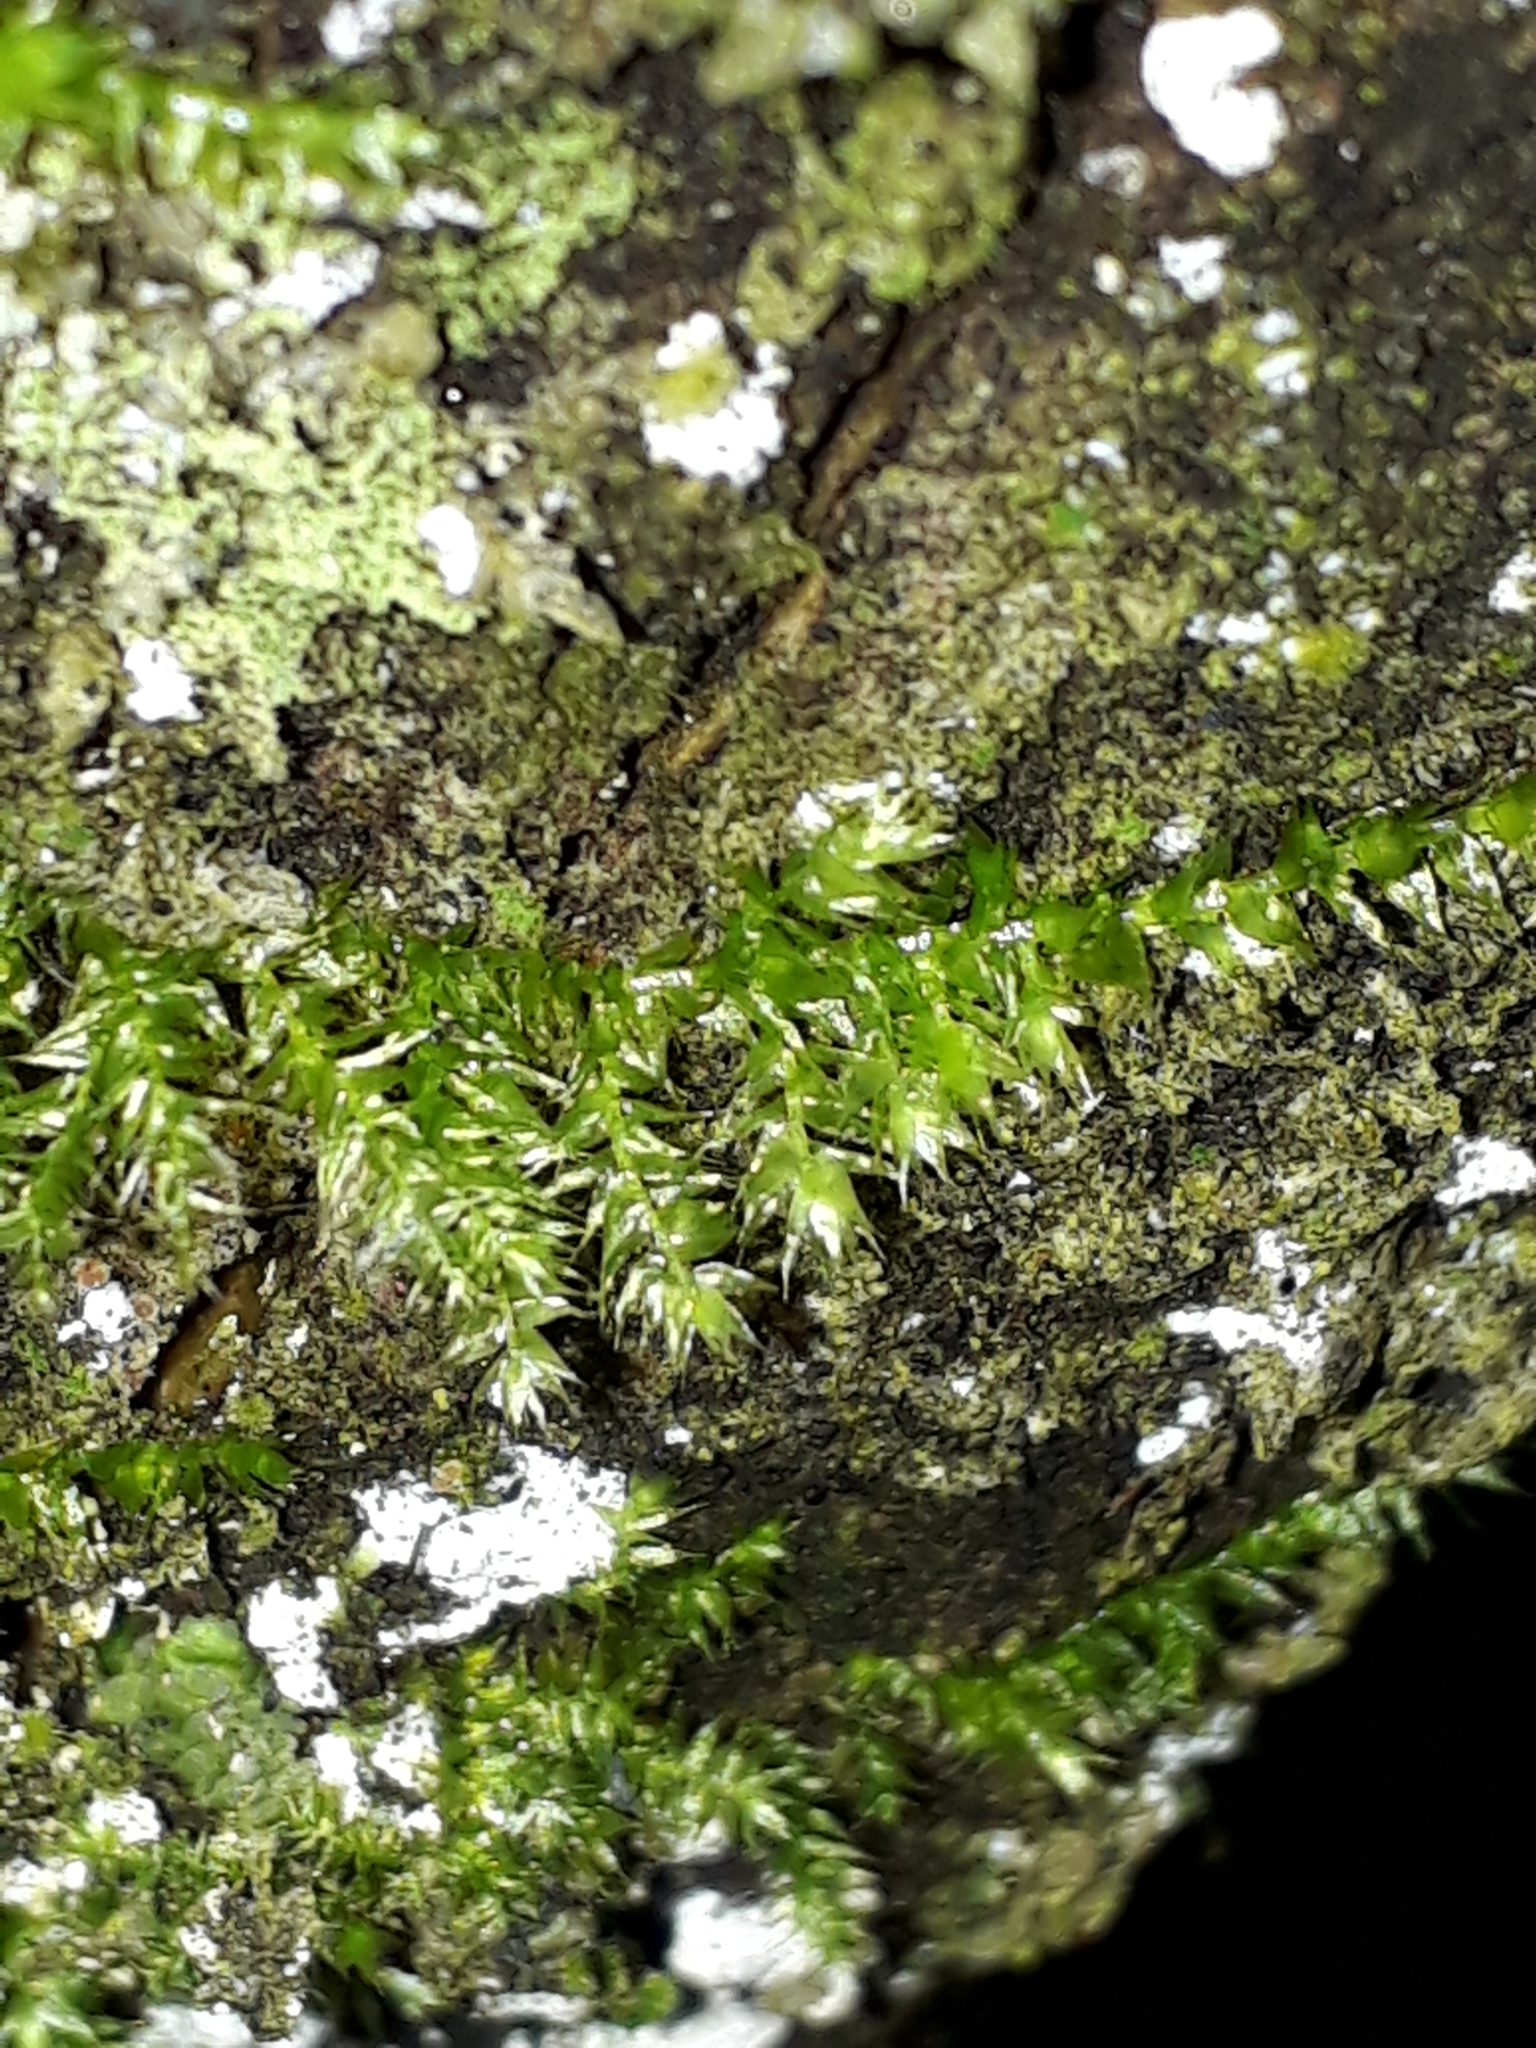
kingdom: Plantae
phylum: Bryophyta
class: Bryopsida
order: Hypnodendrales
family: Racopilaceae
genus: Racopilum
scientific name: Racopilum cuspidigerum
